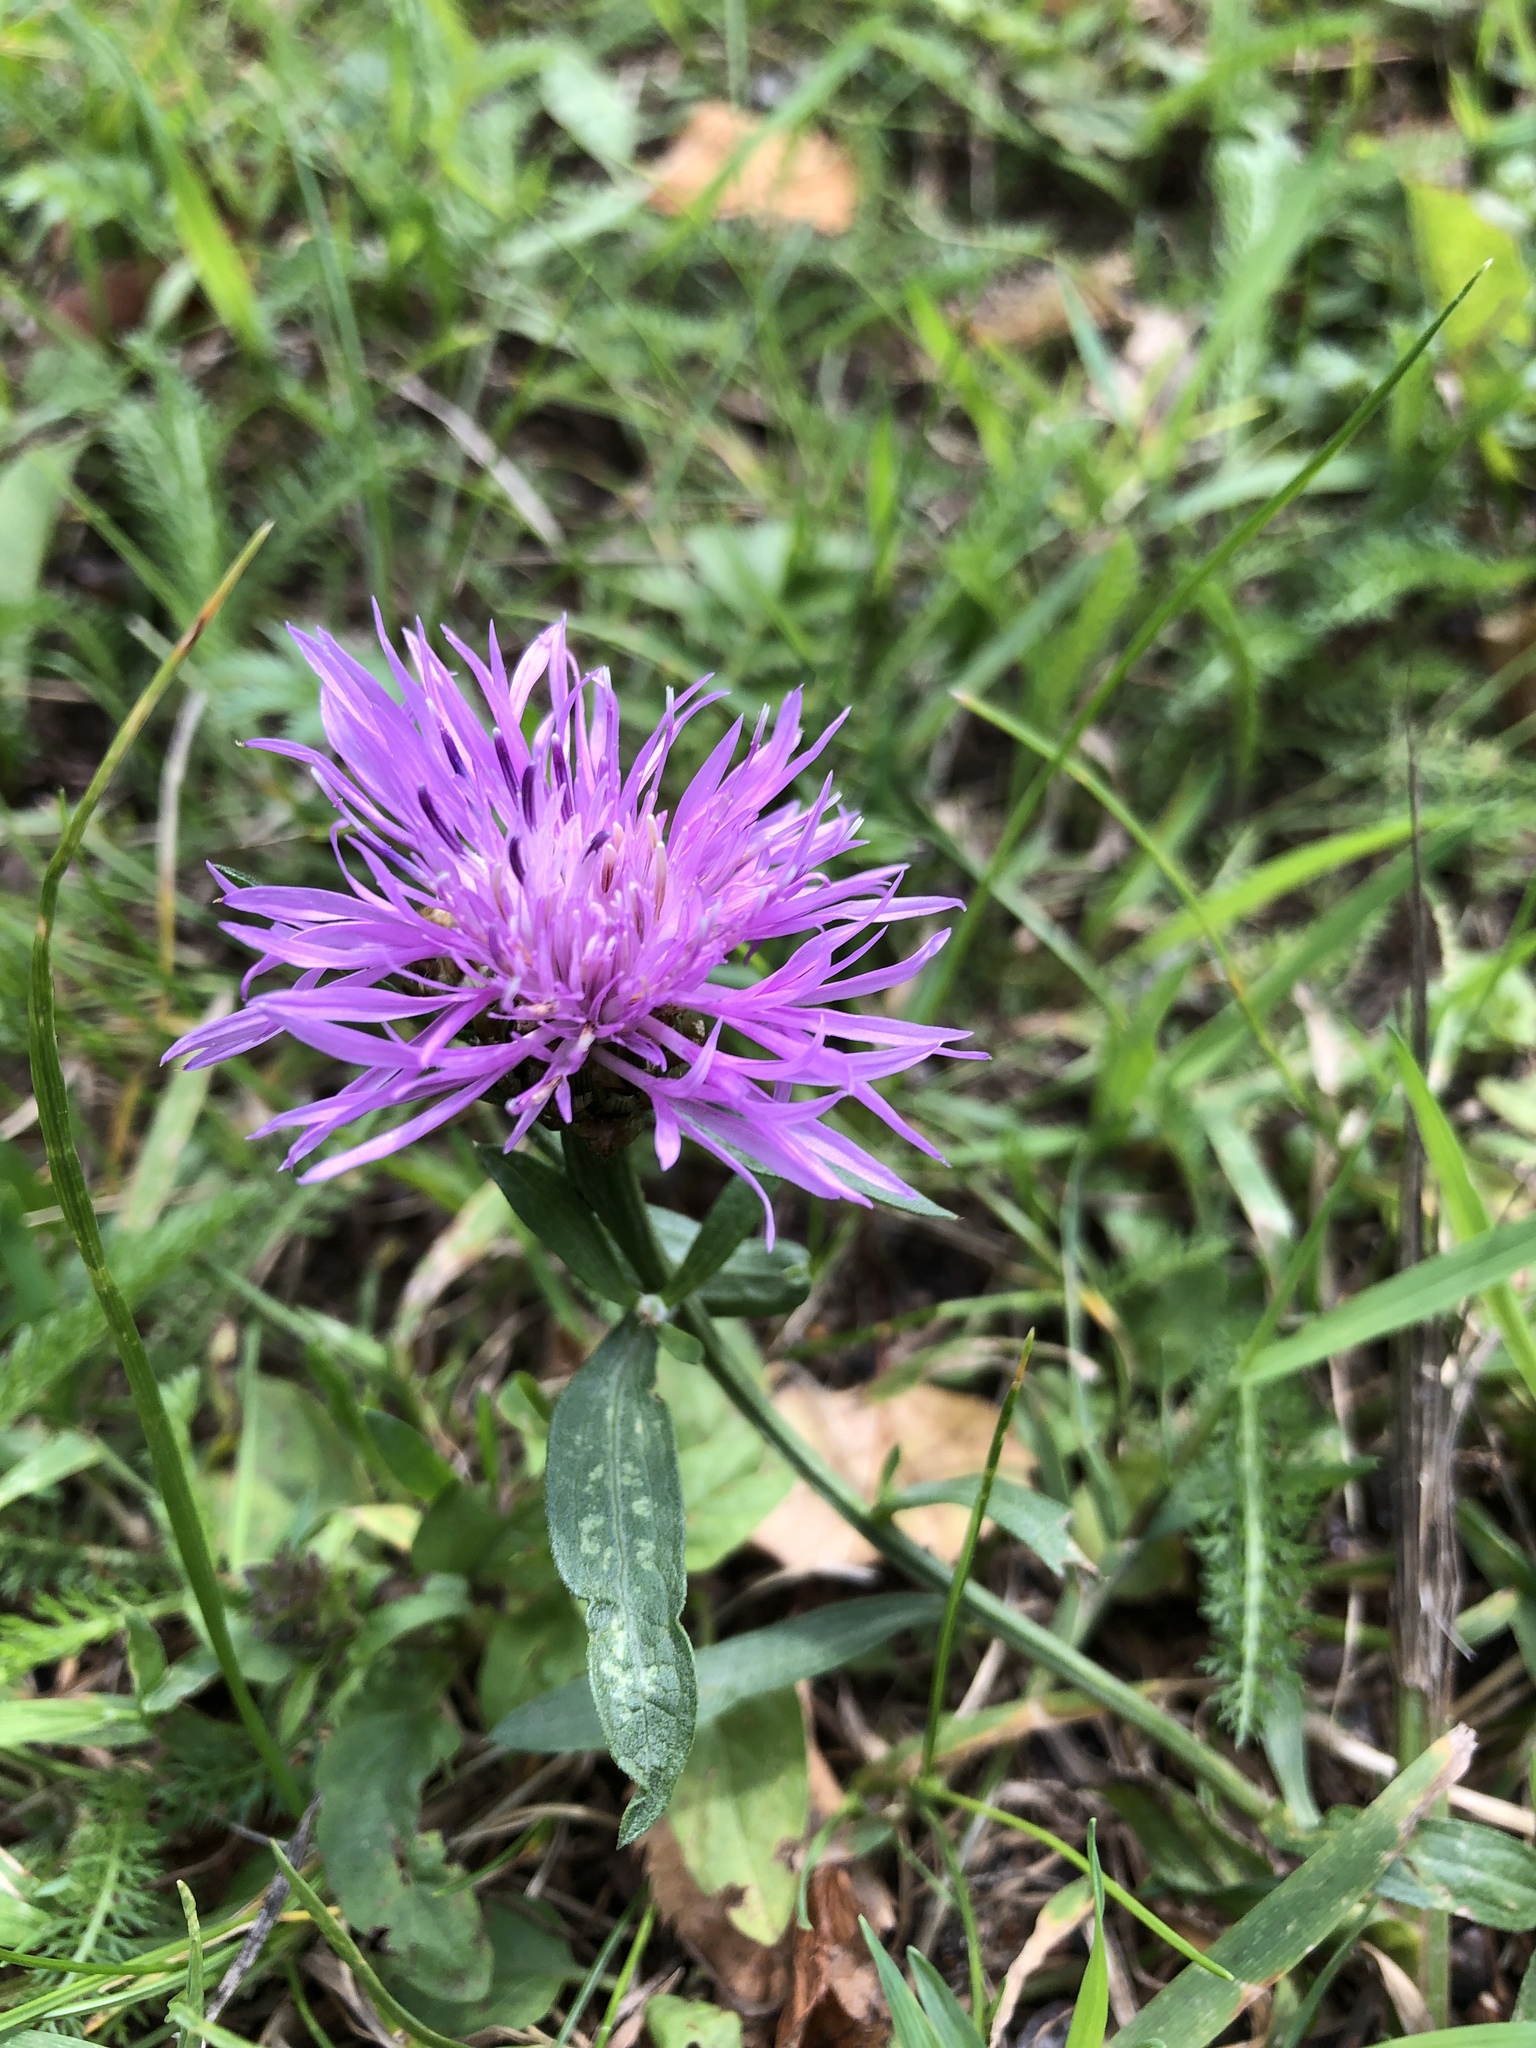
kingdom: Plantae
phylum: Tracheophyta
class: Magnoliopsida
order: Asterales
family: Asteraceae
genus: Centaurea
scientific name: Centaurea jacea
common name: Brown knapweed
